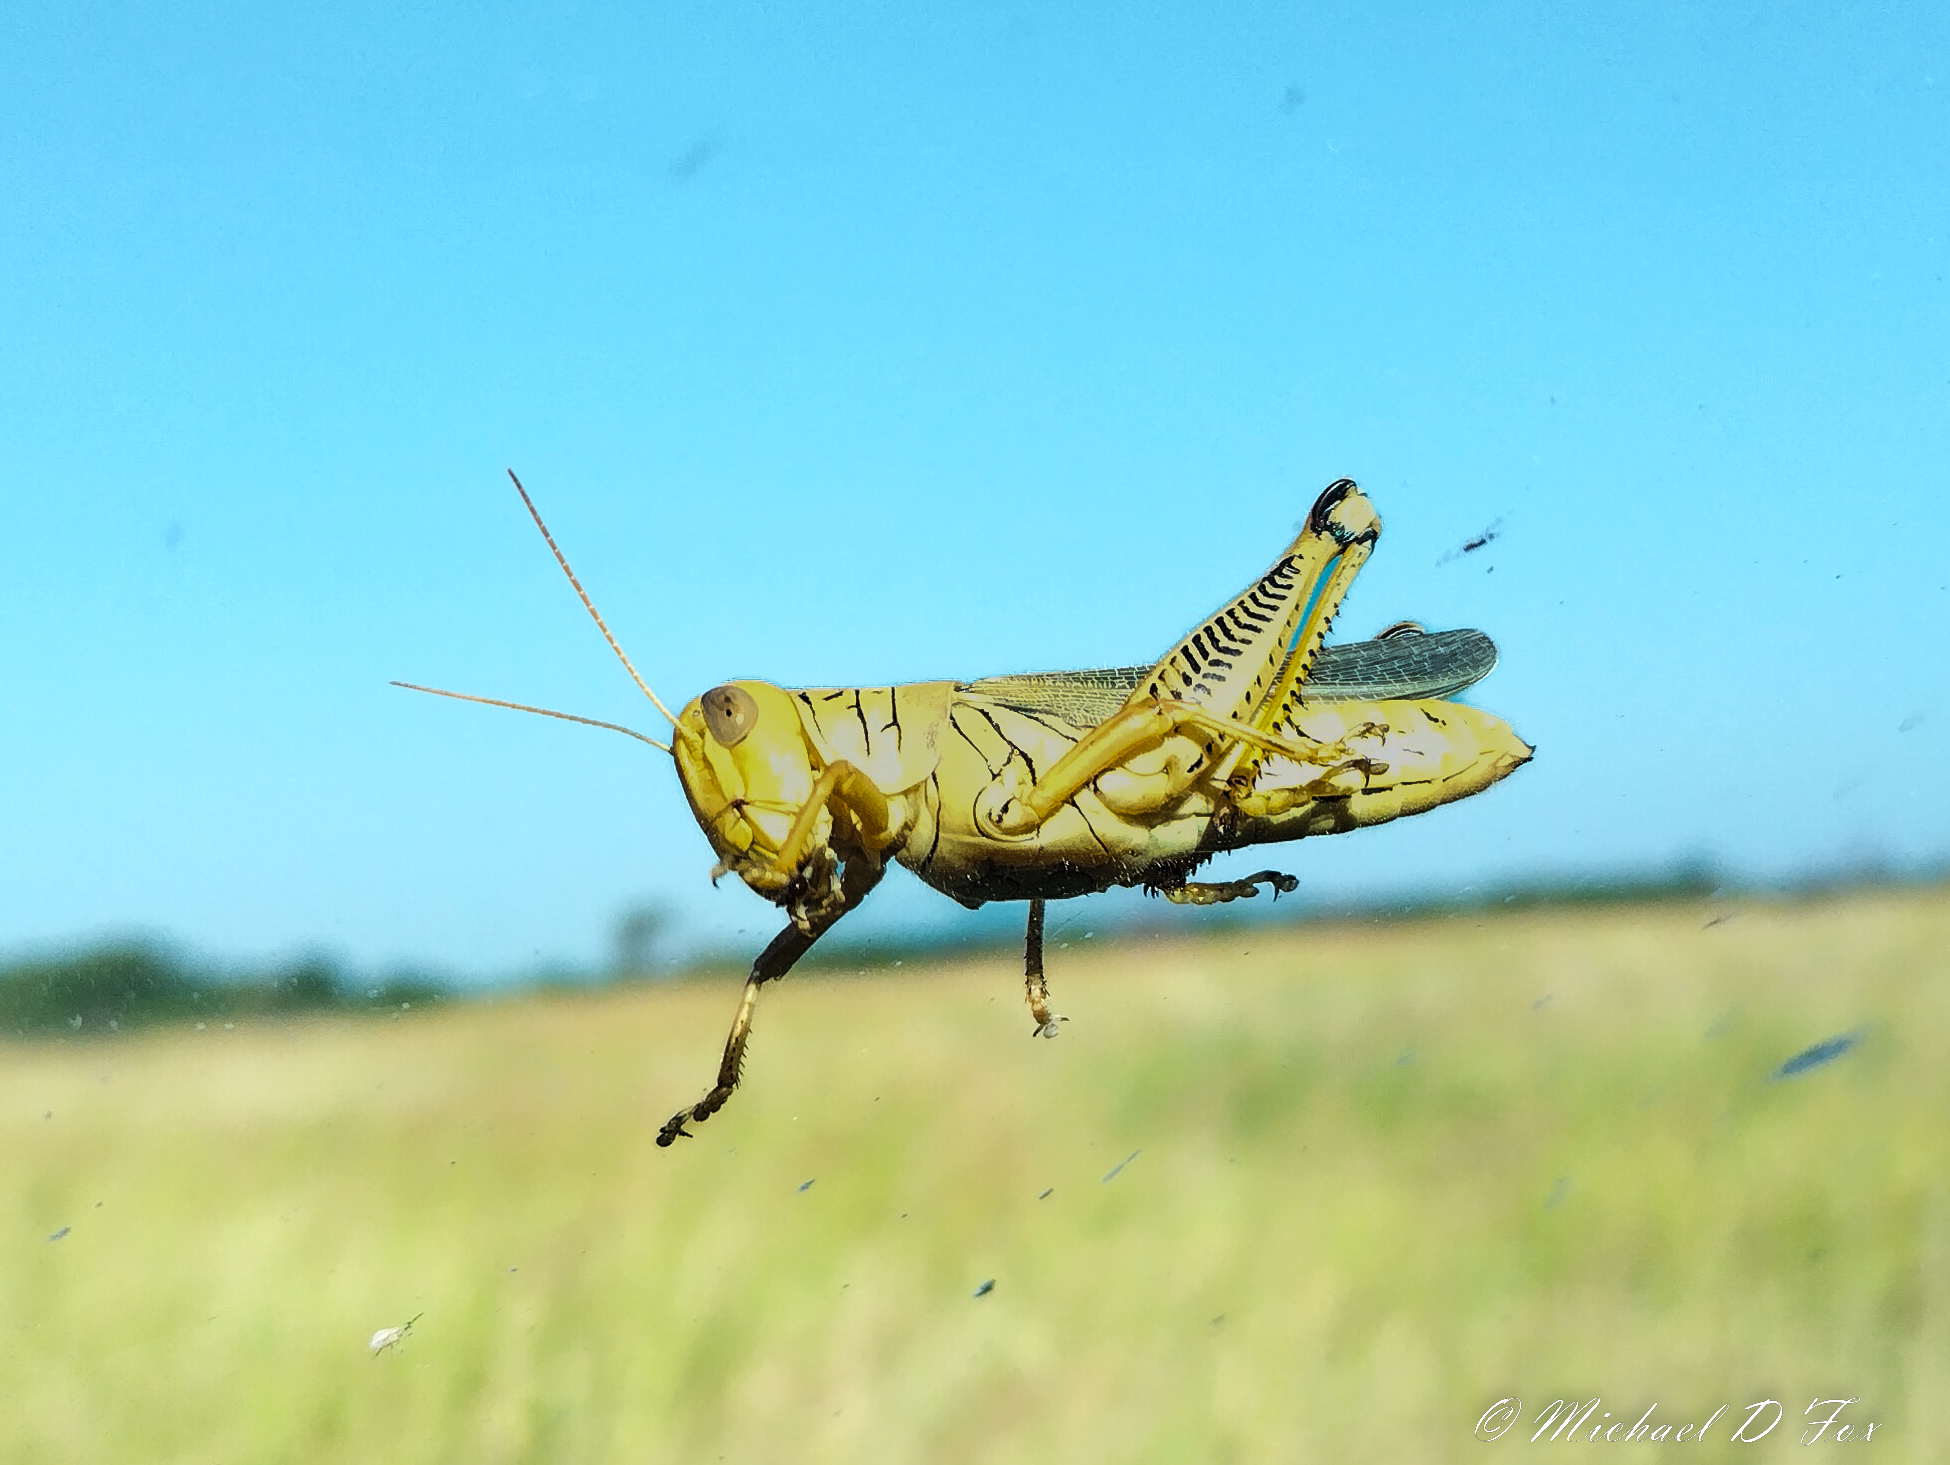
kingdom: Animalia
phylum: Arthropoda
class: Insecta
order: Orthoptera
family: Acrididae
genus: Melanoplus
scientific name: Melanoplus differentialis
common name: Differential grasshopper
